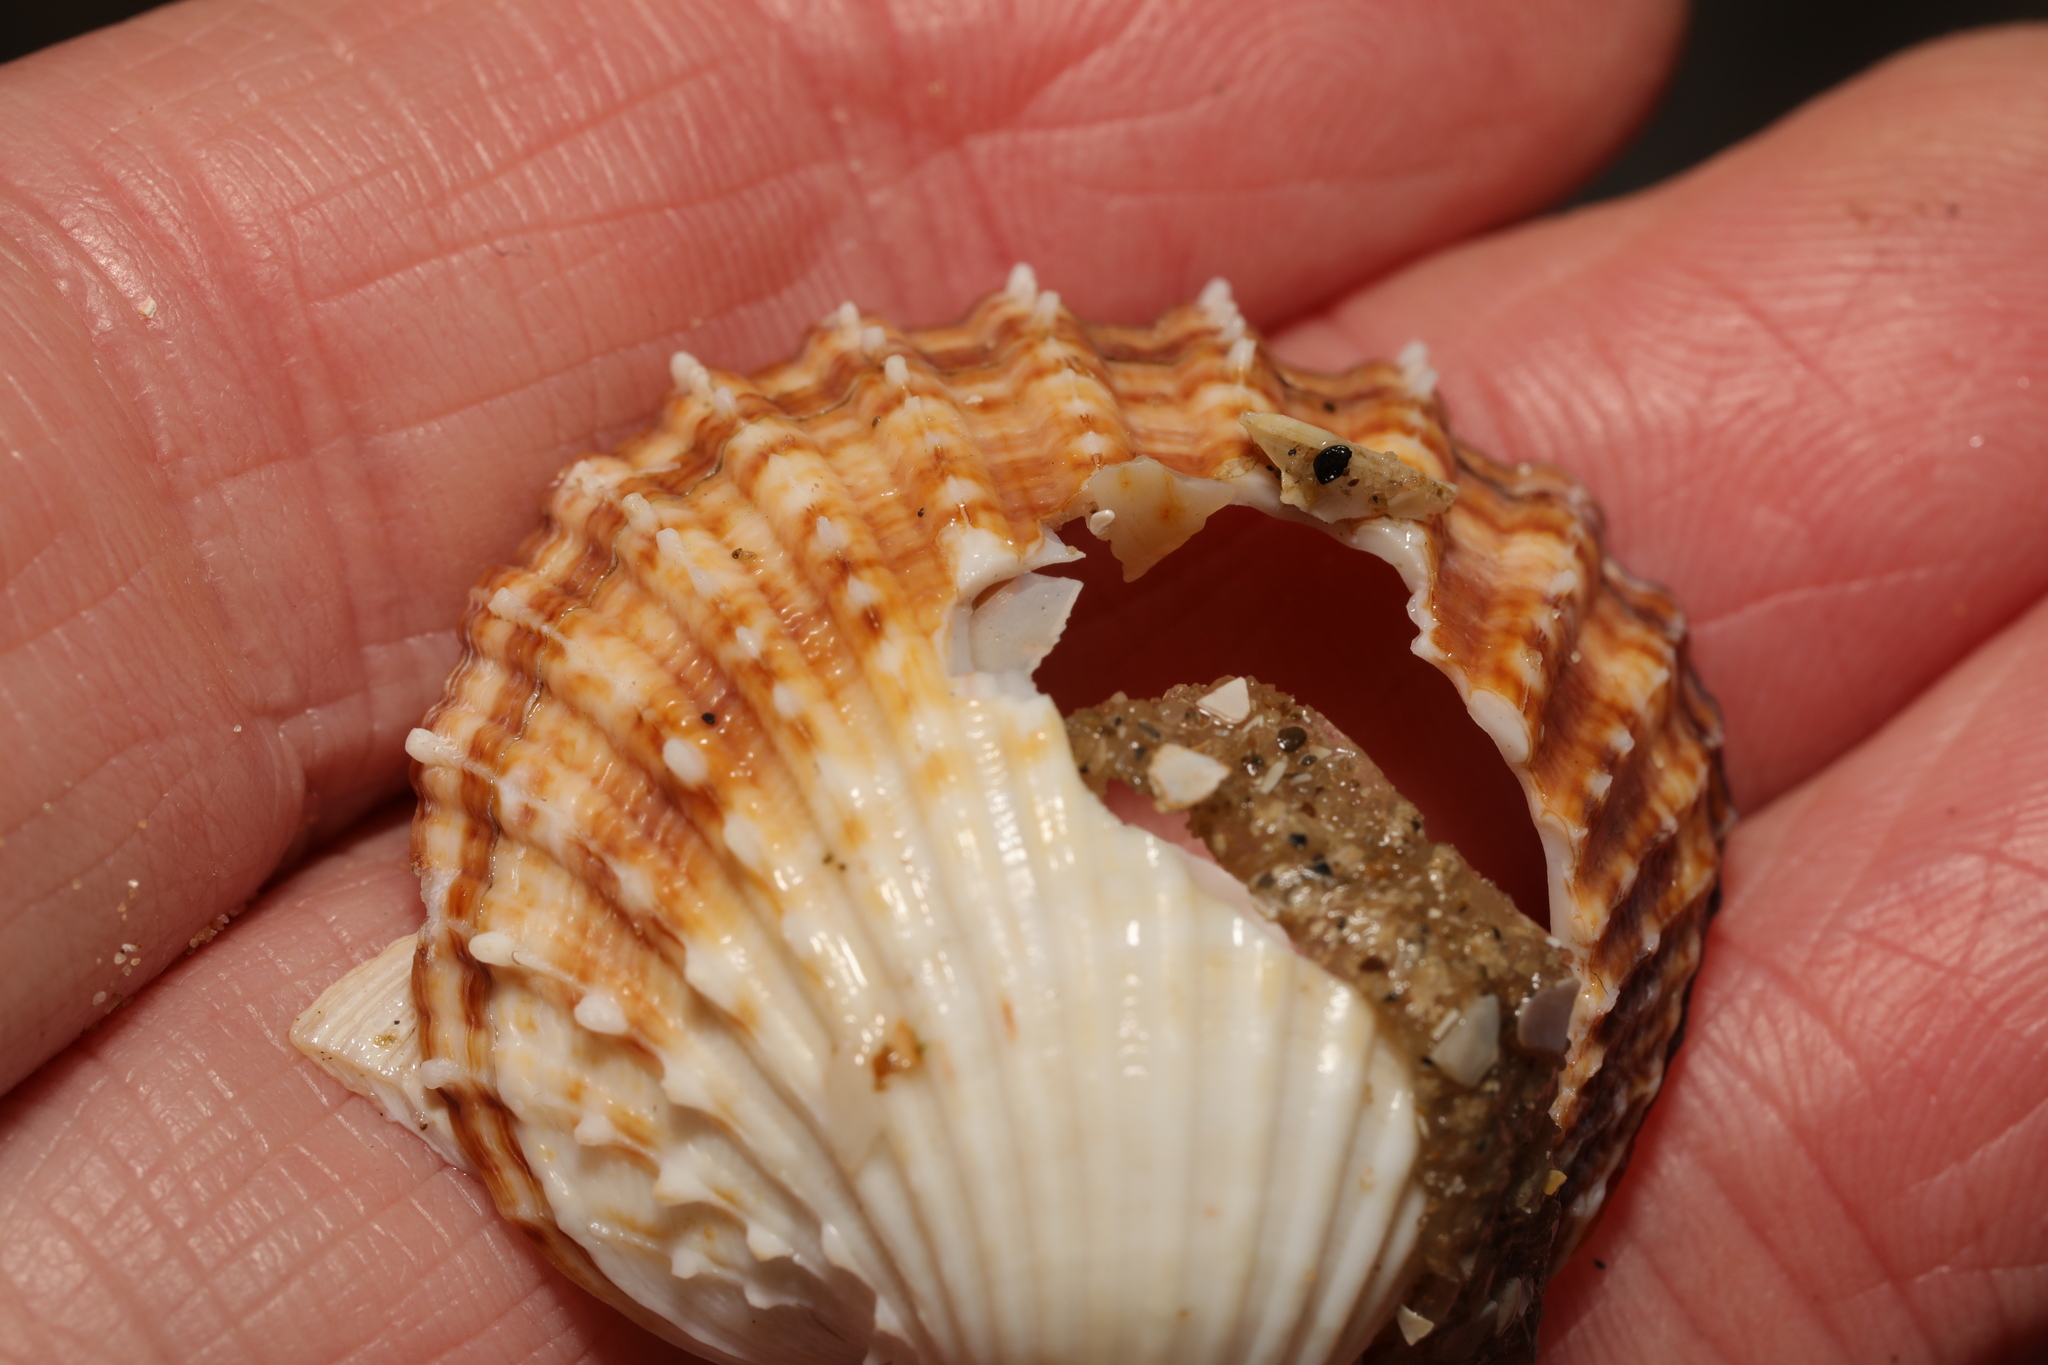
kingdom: Animalia
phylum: Mollusca
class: Bivalvia
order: Cardiida
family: Cardiidae
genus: Acanthocardia
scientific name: Acanthocardia echinata
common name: Prickly cockle
